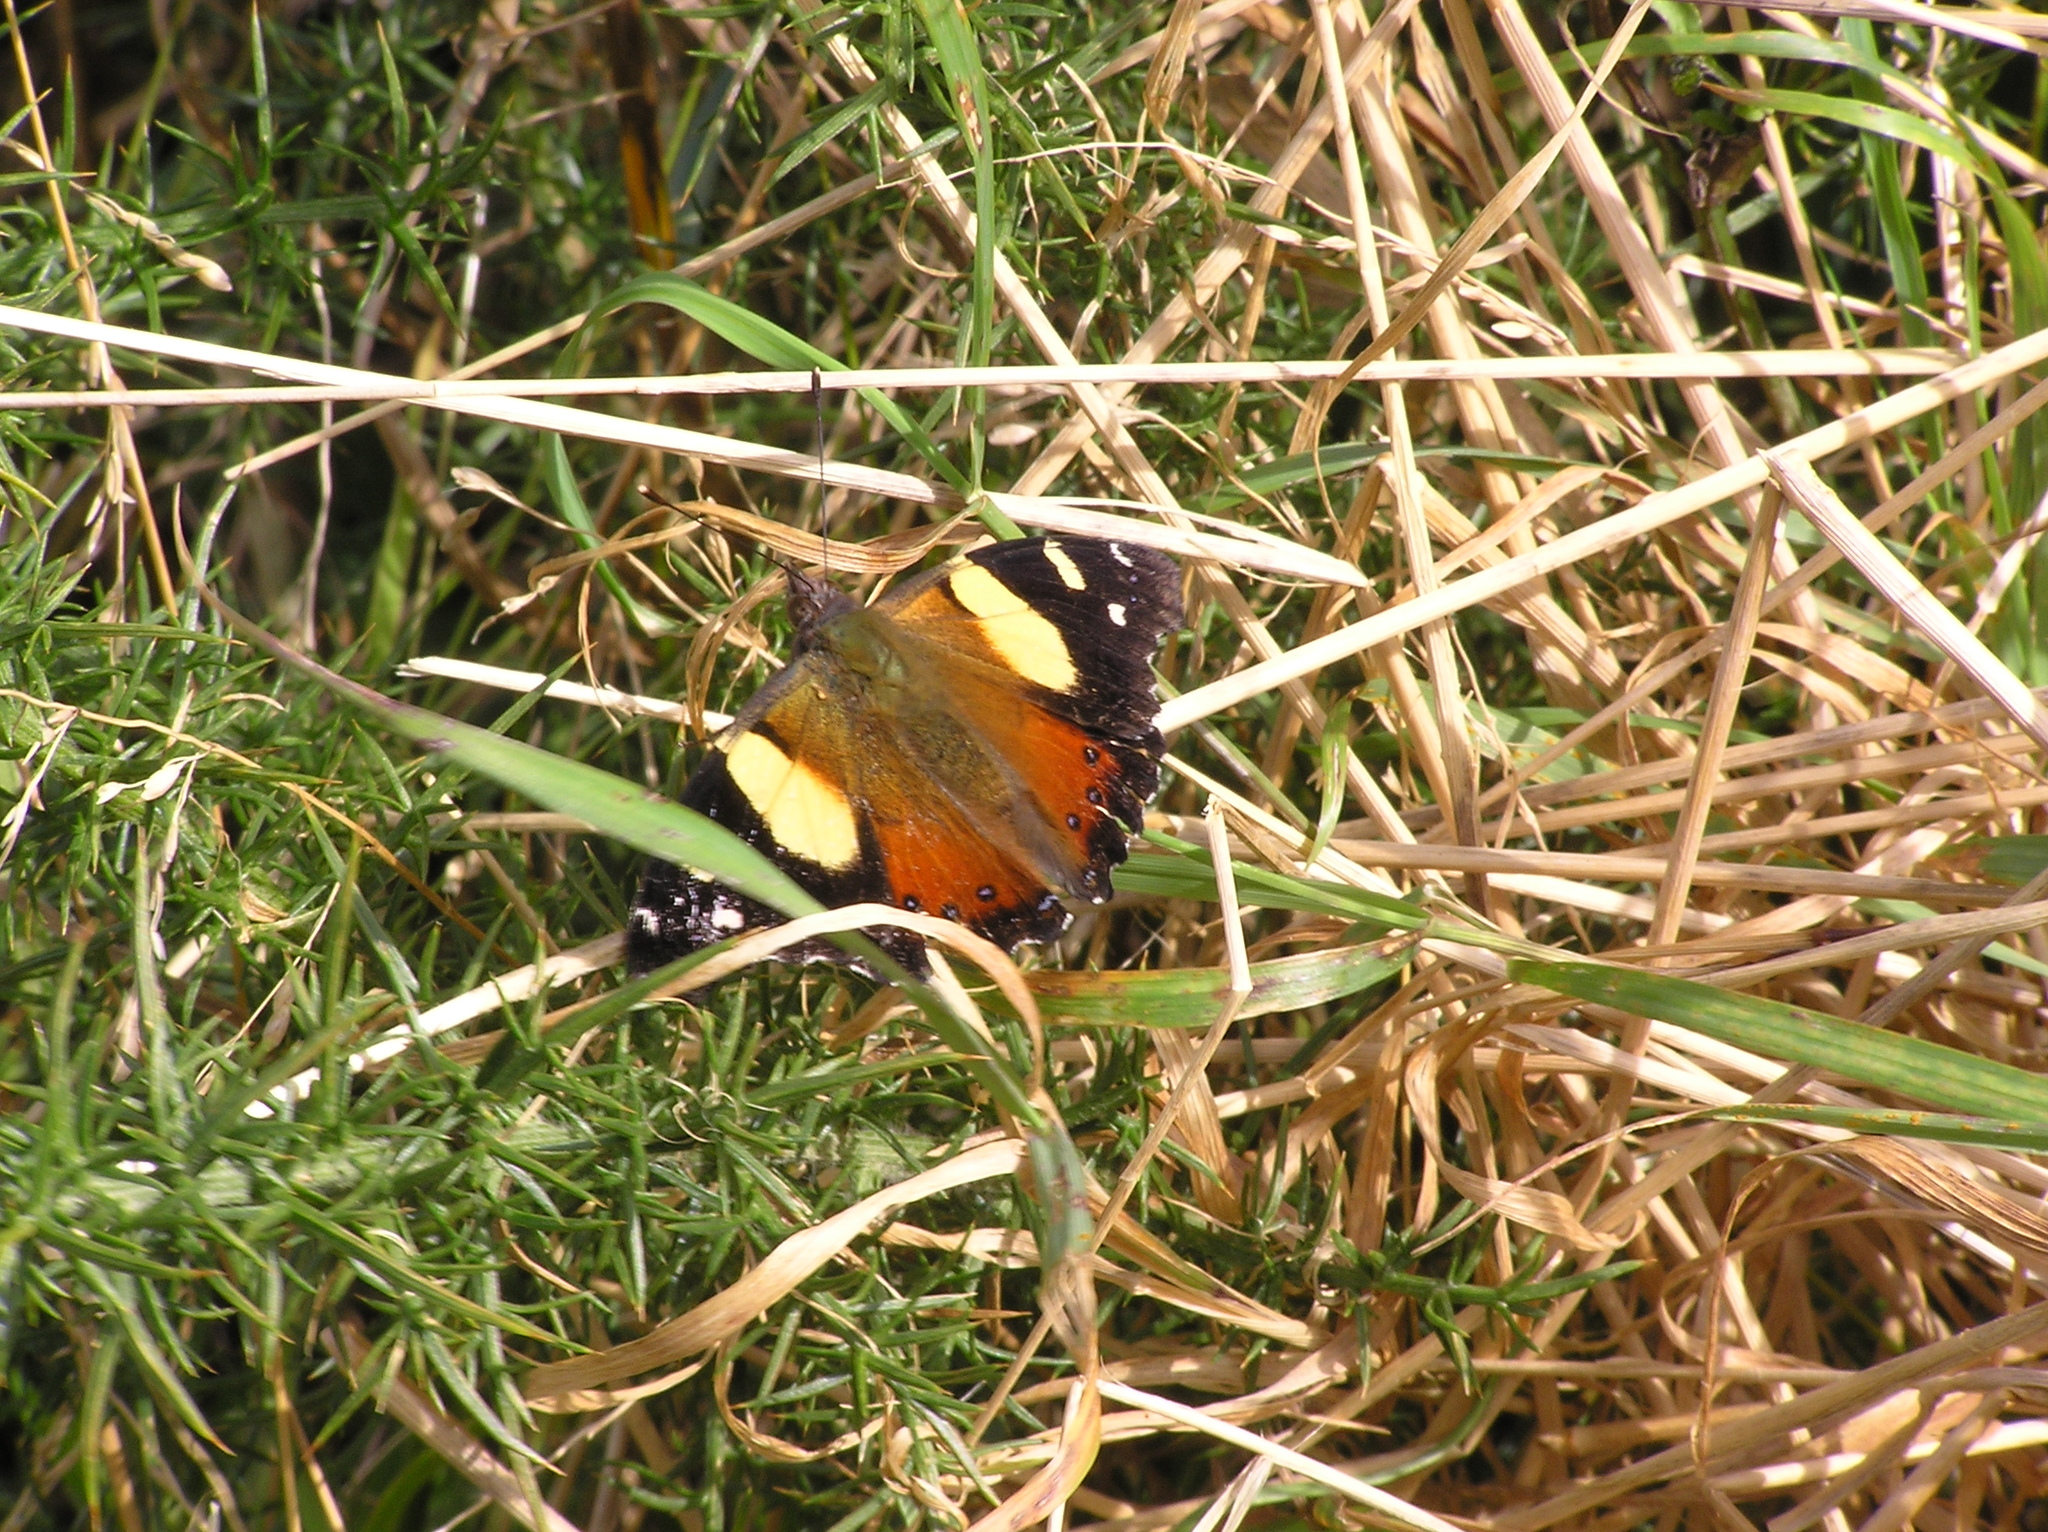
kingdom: Animalia
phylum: Arthropoda
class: Insecta
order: Lepidoptera
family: Nymphalidae
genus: Vanessa
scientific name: Vanessa itea
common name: Yellow admiral
